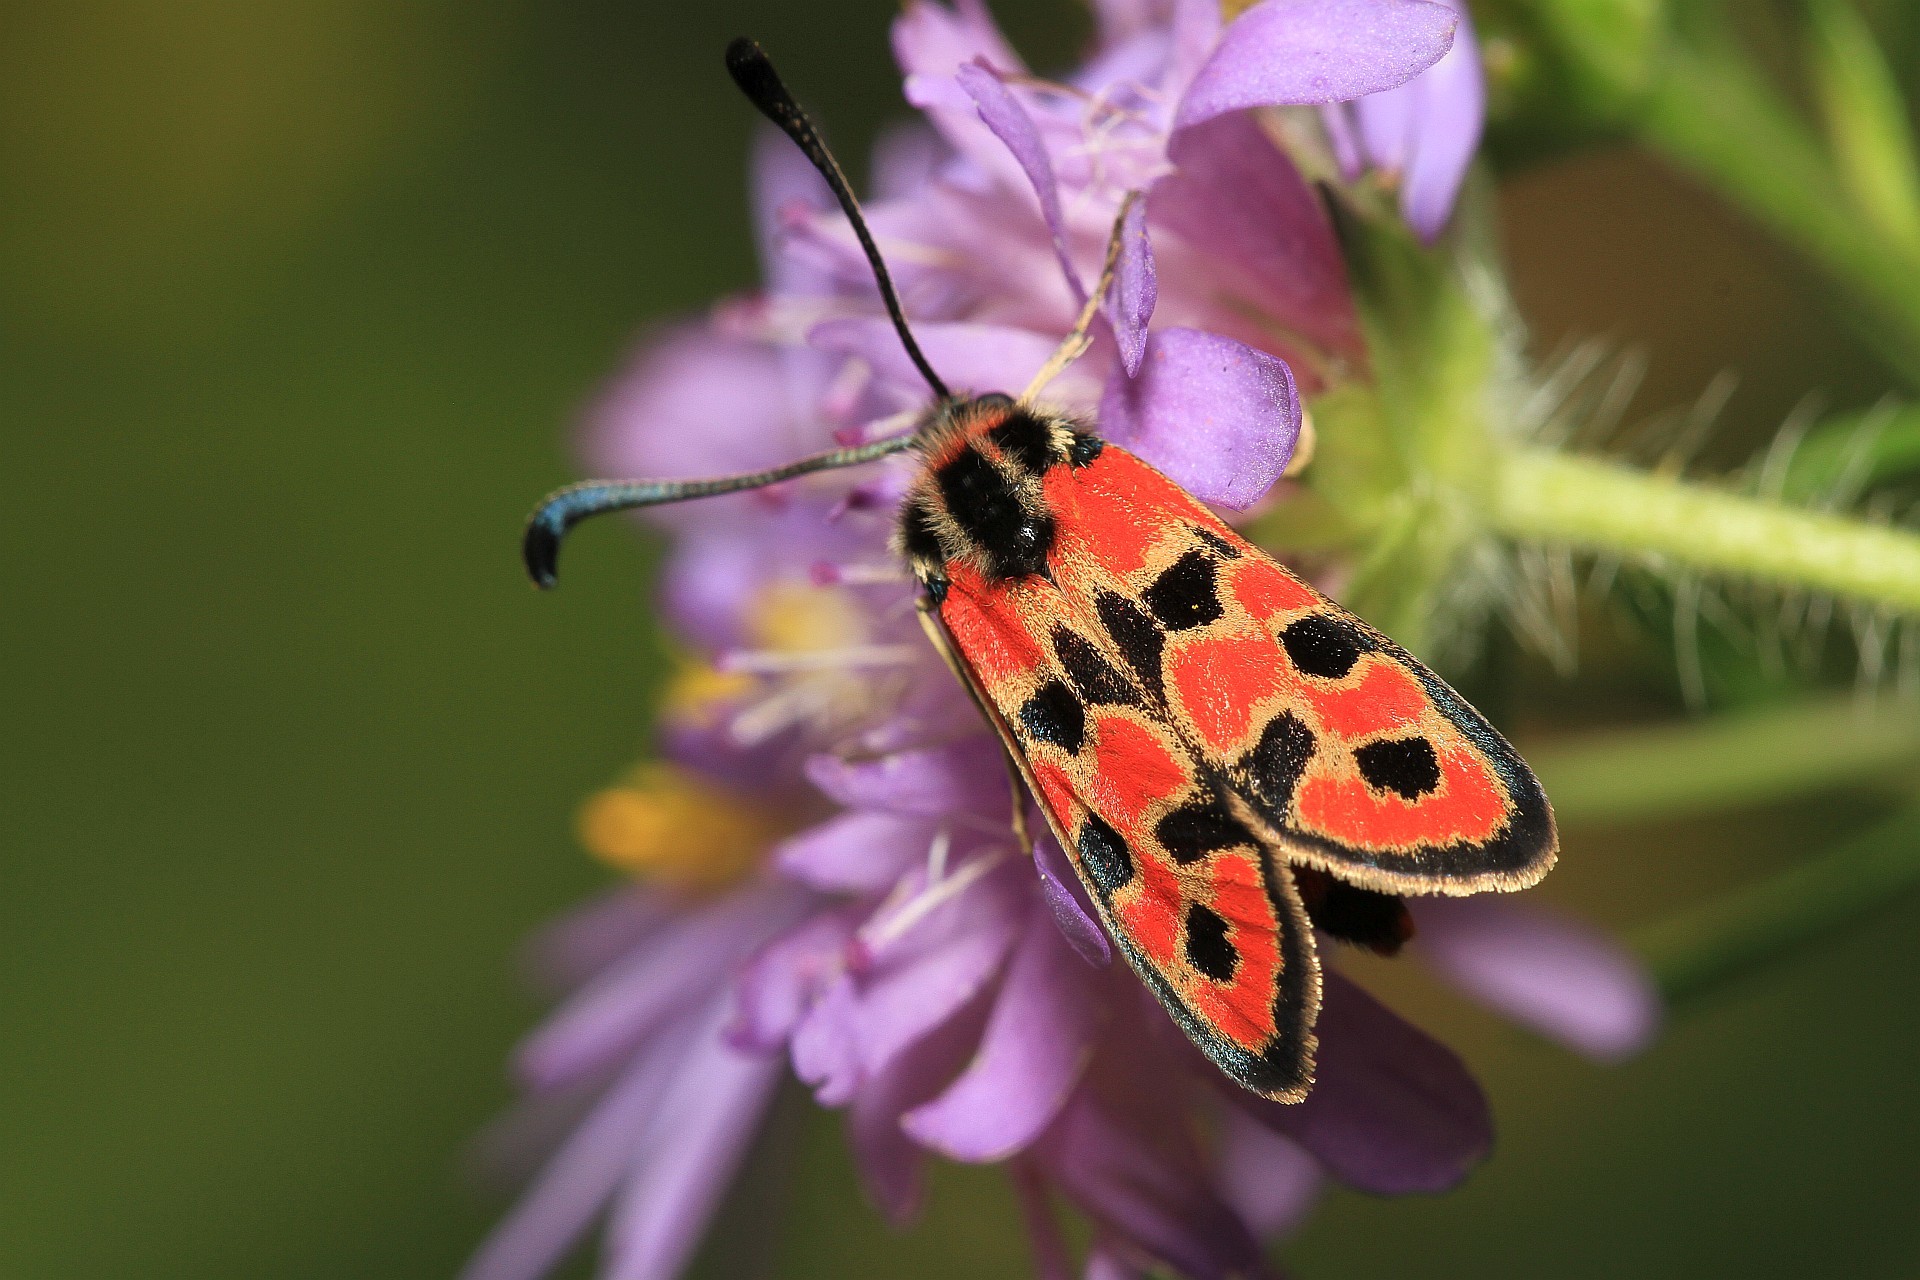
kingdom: Animalia
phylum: Arthropoda
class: Insecta
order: Lepidoptera
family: Zygaenidae
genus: Zygaena
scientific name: Zygaena fausta
